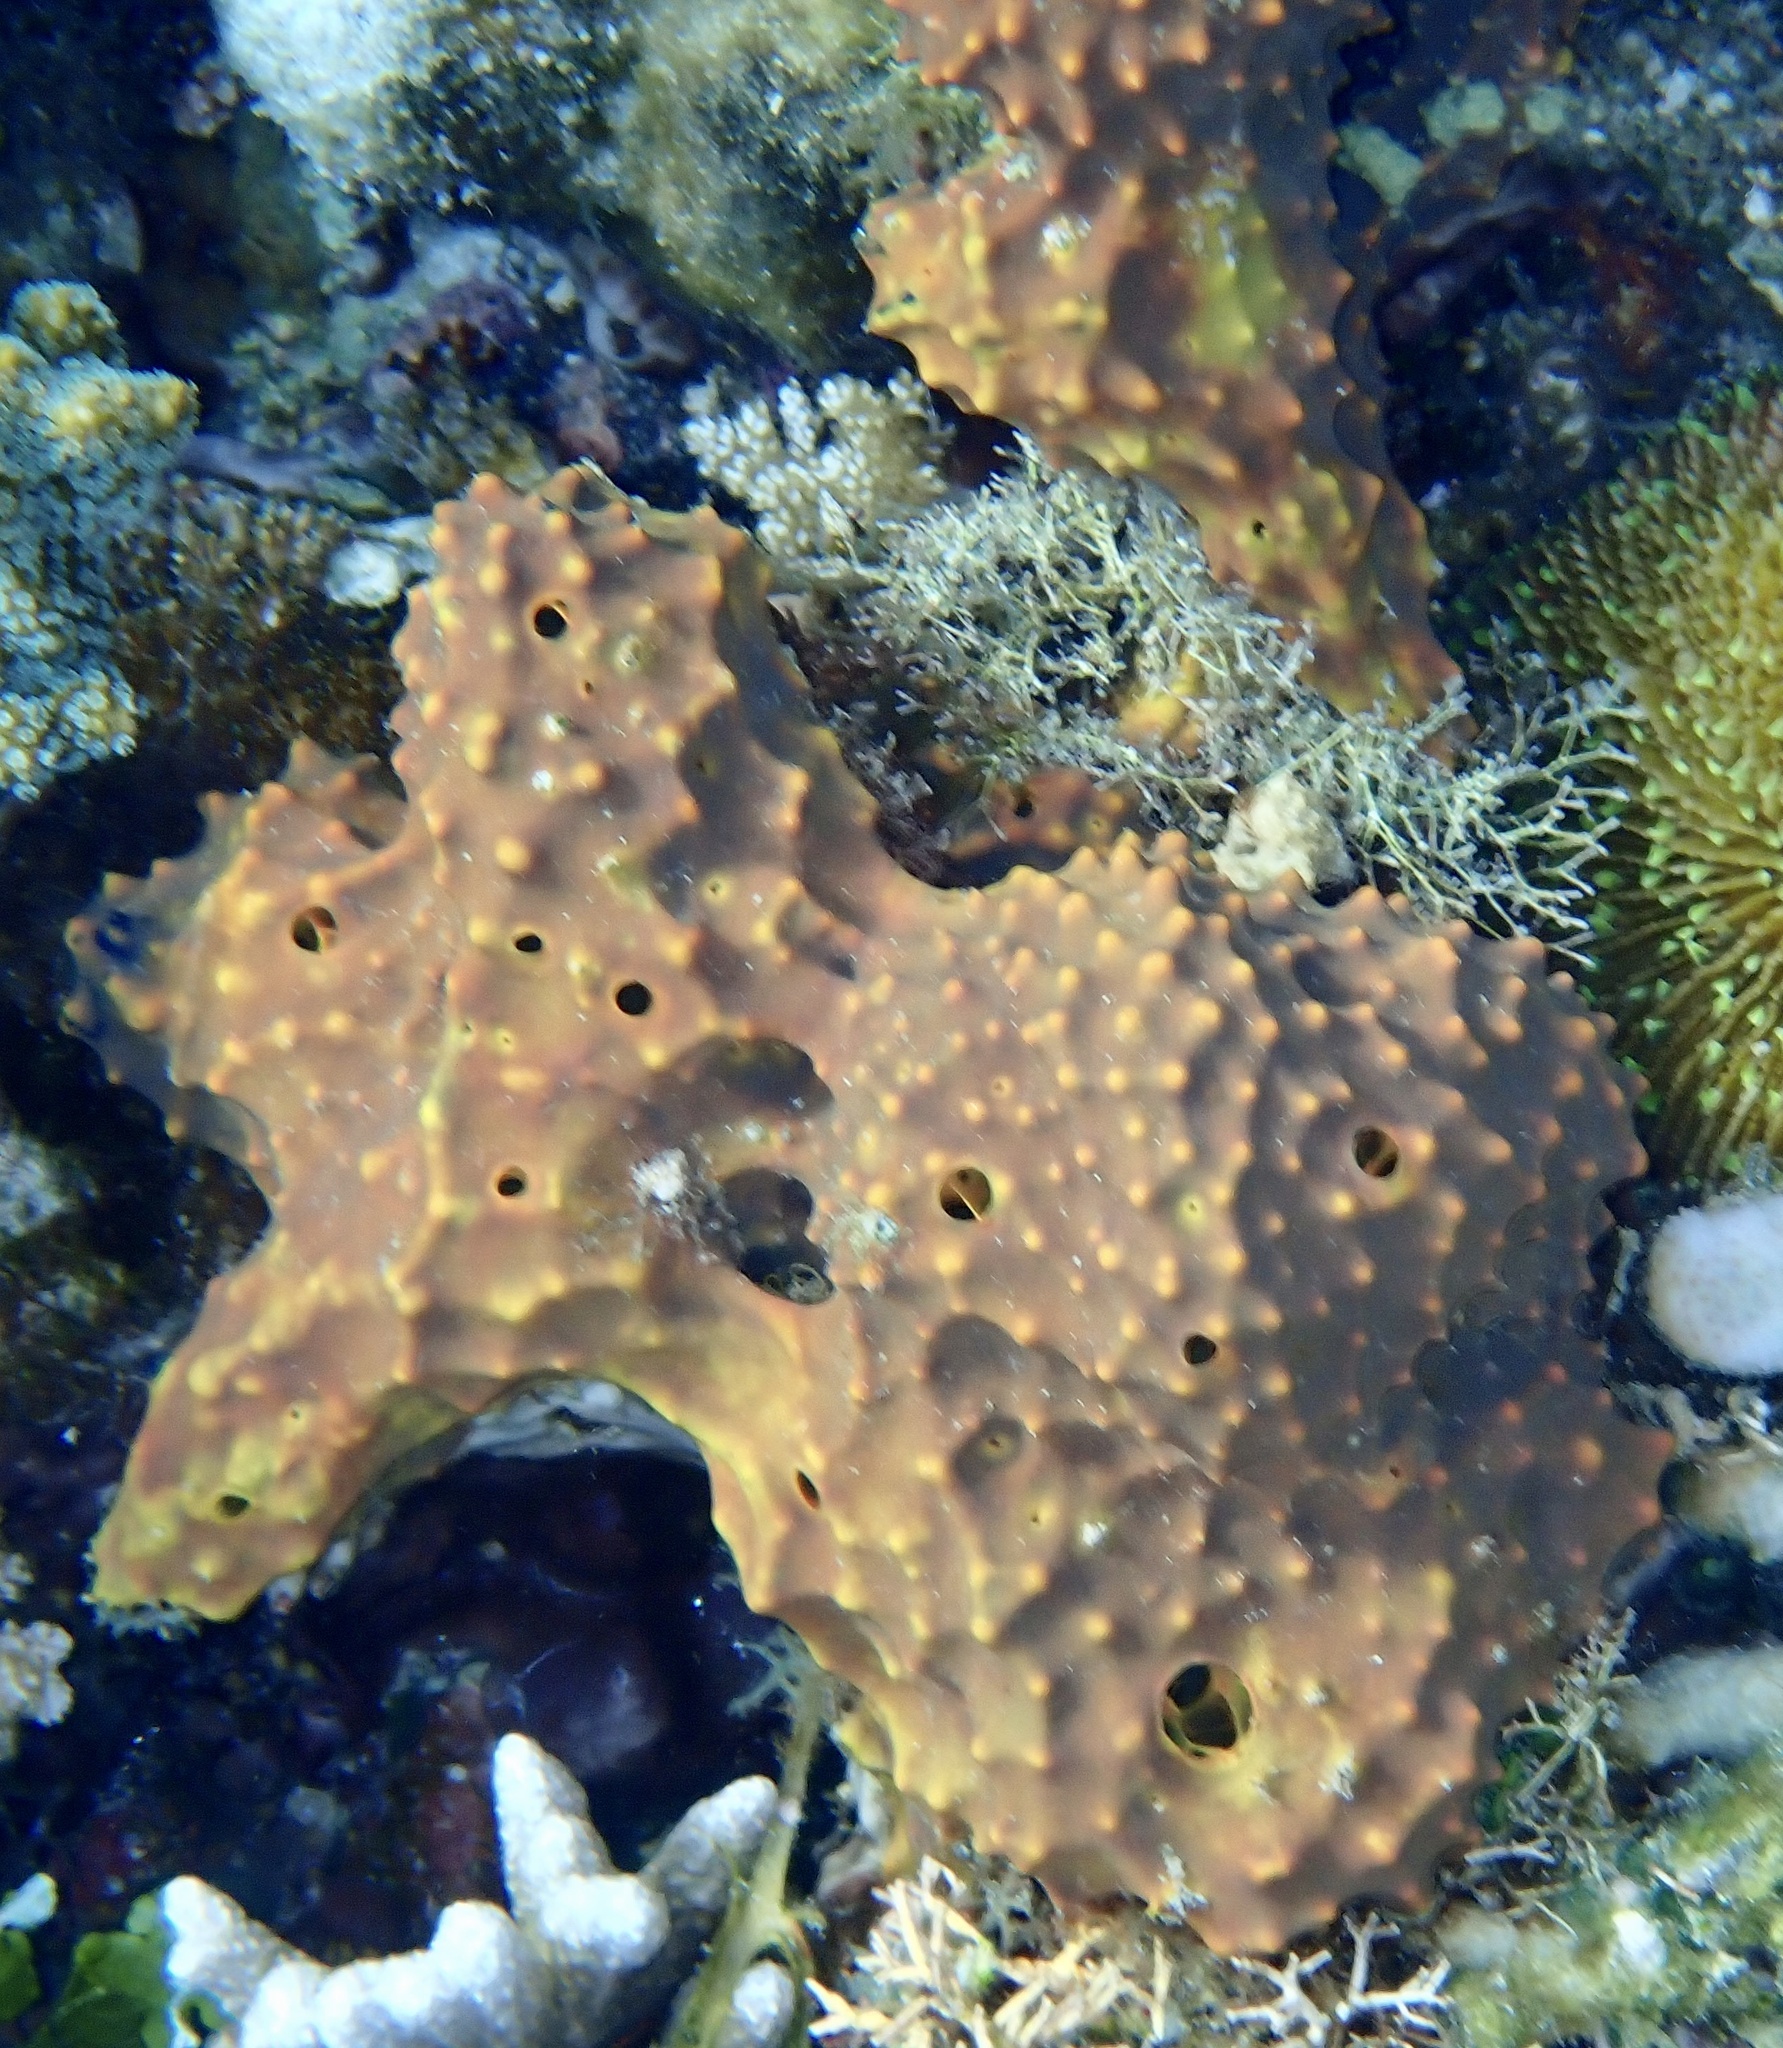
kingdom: Animalia
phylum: Porifera
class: Demospongiae
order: Verongiida
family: Pseudoceratinidae
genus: Pseudoceratina
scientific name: Pseudoceratina verrucosa
